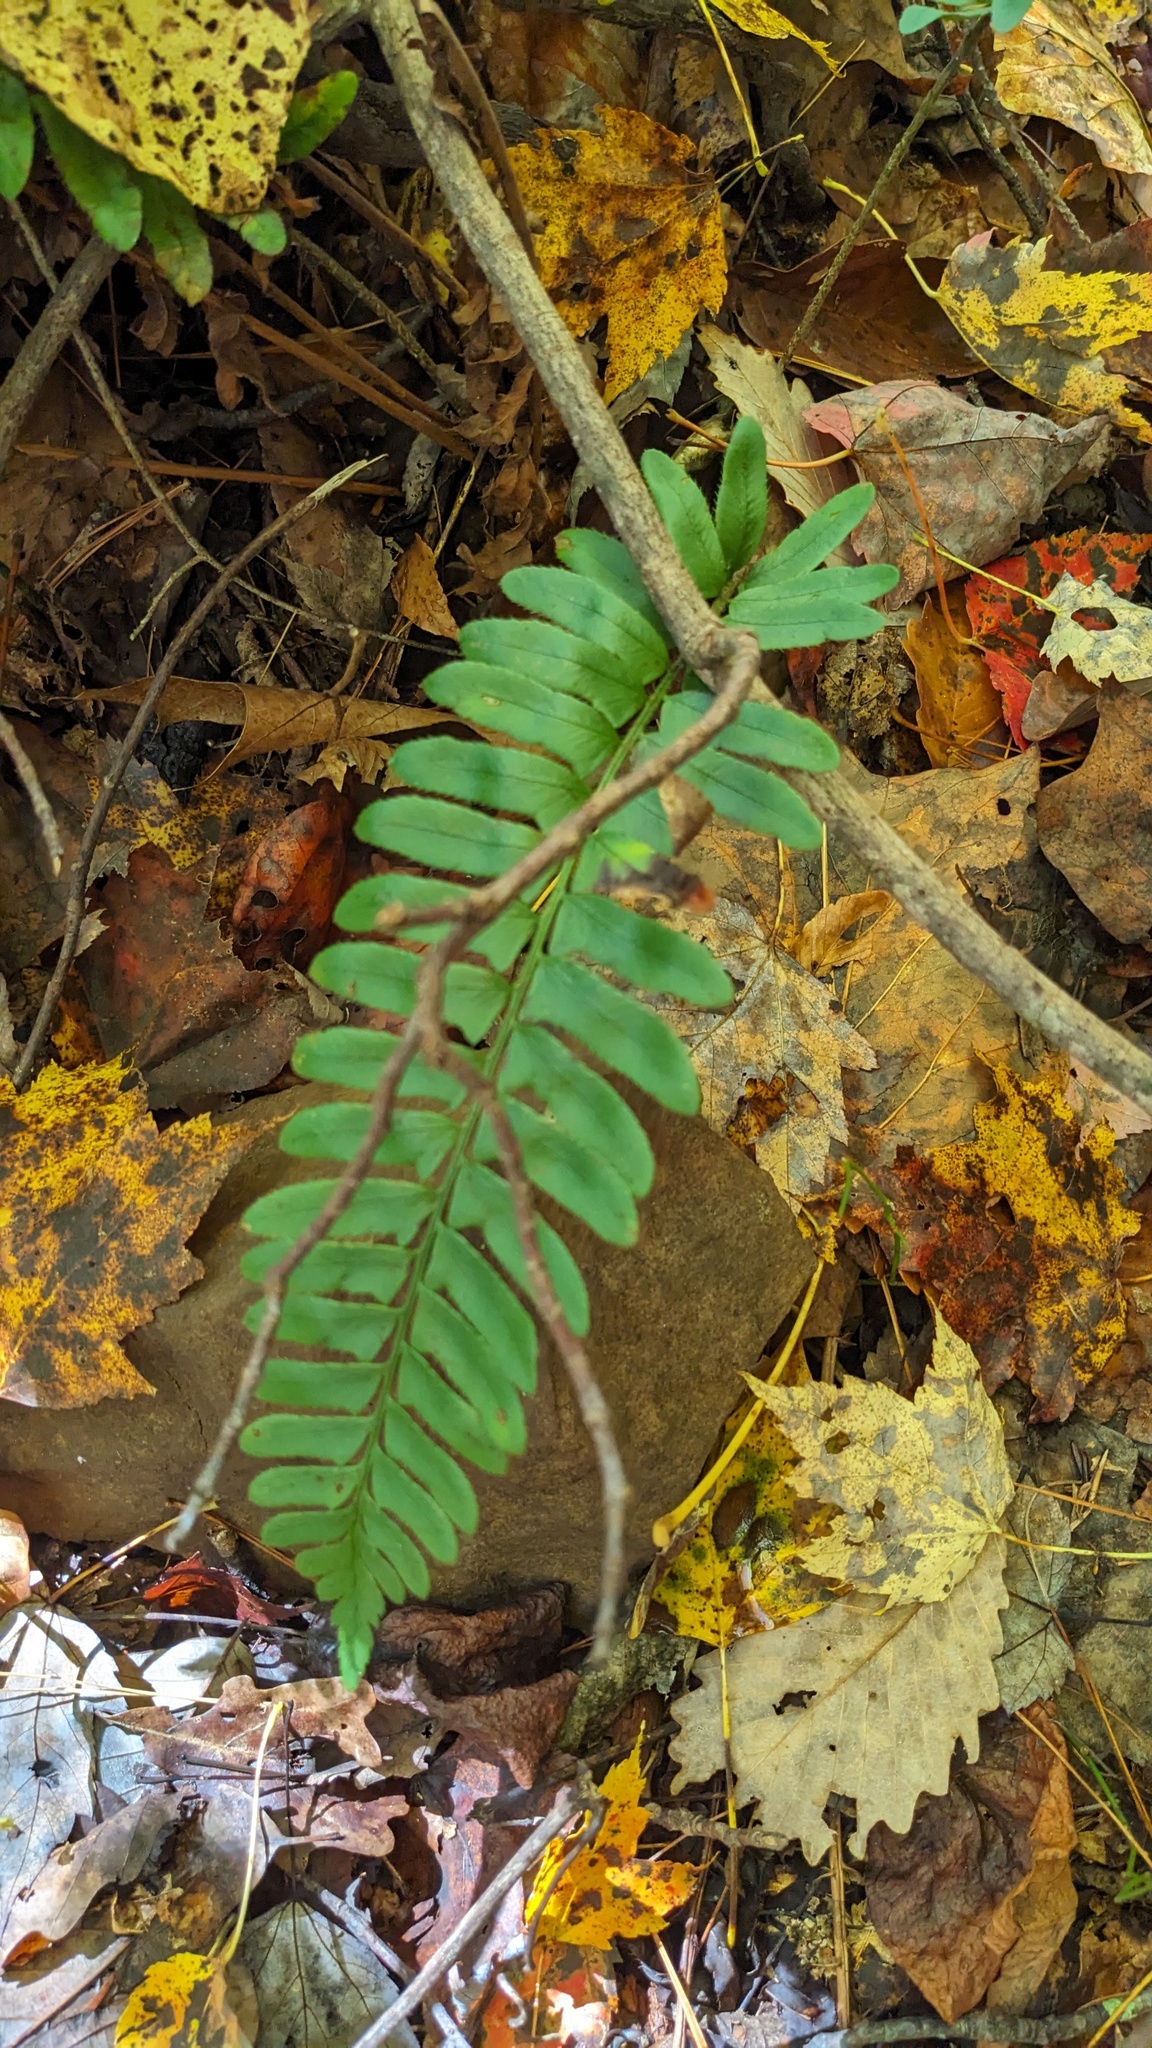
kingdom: Plantae
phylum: Tracheophyta
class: Polypodiopsida
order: Polypodiales
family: Dryopteridaceae
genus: Polystichum
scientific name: Polystichum acrostichoides
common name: Christmas fern
